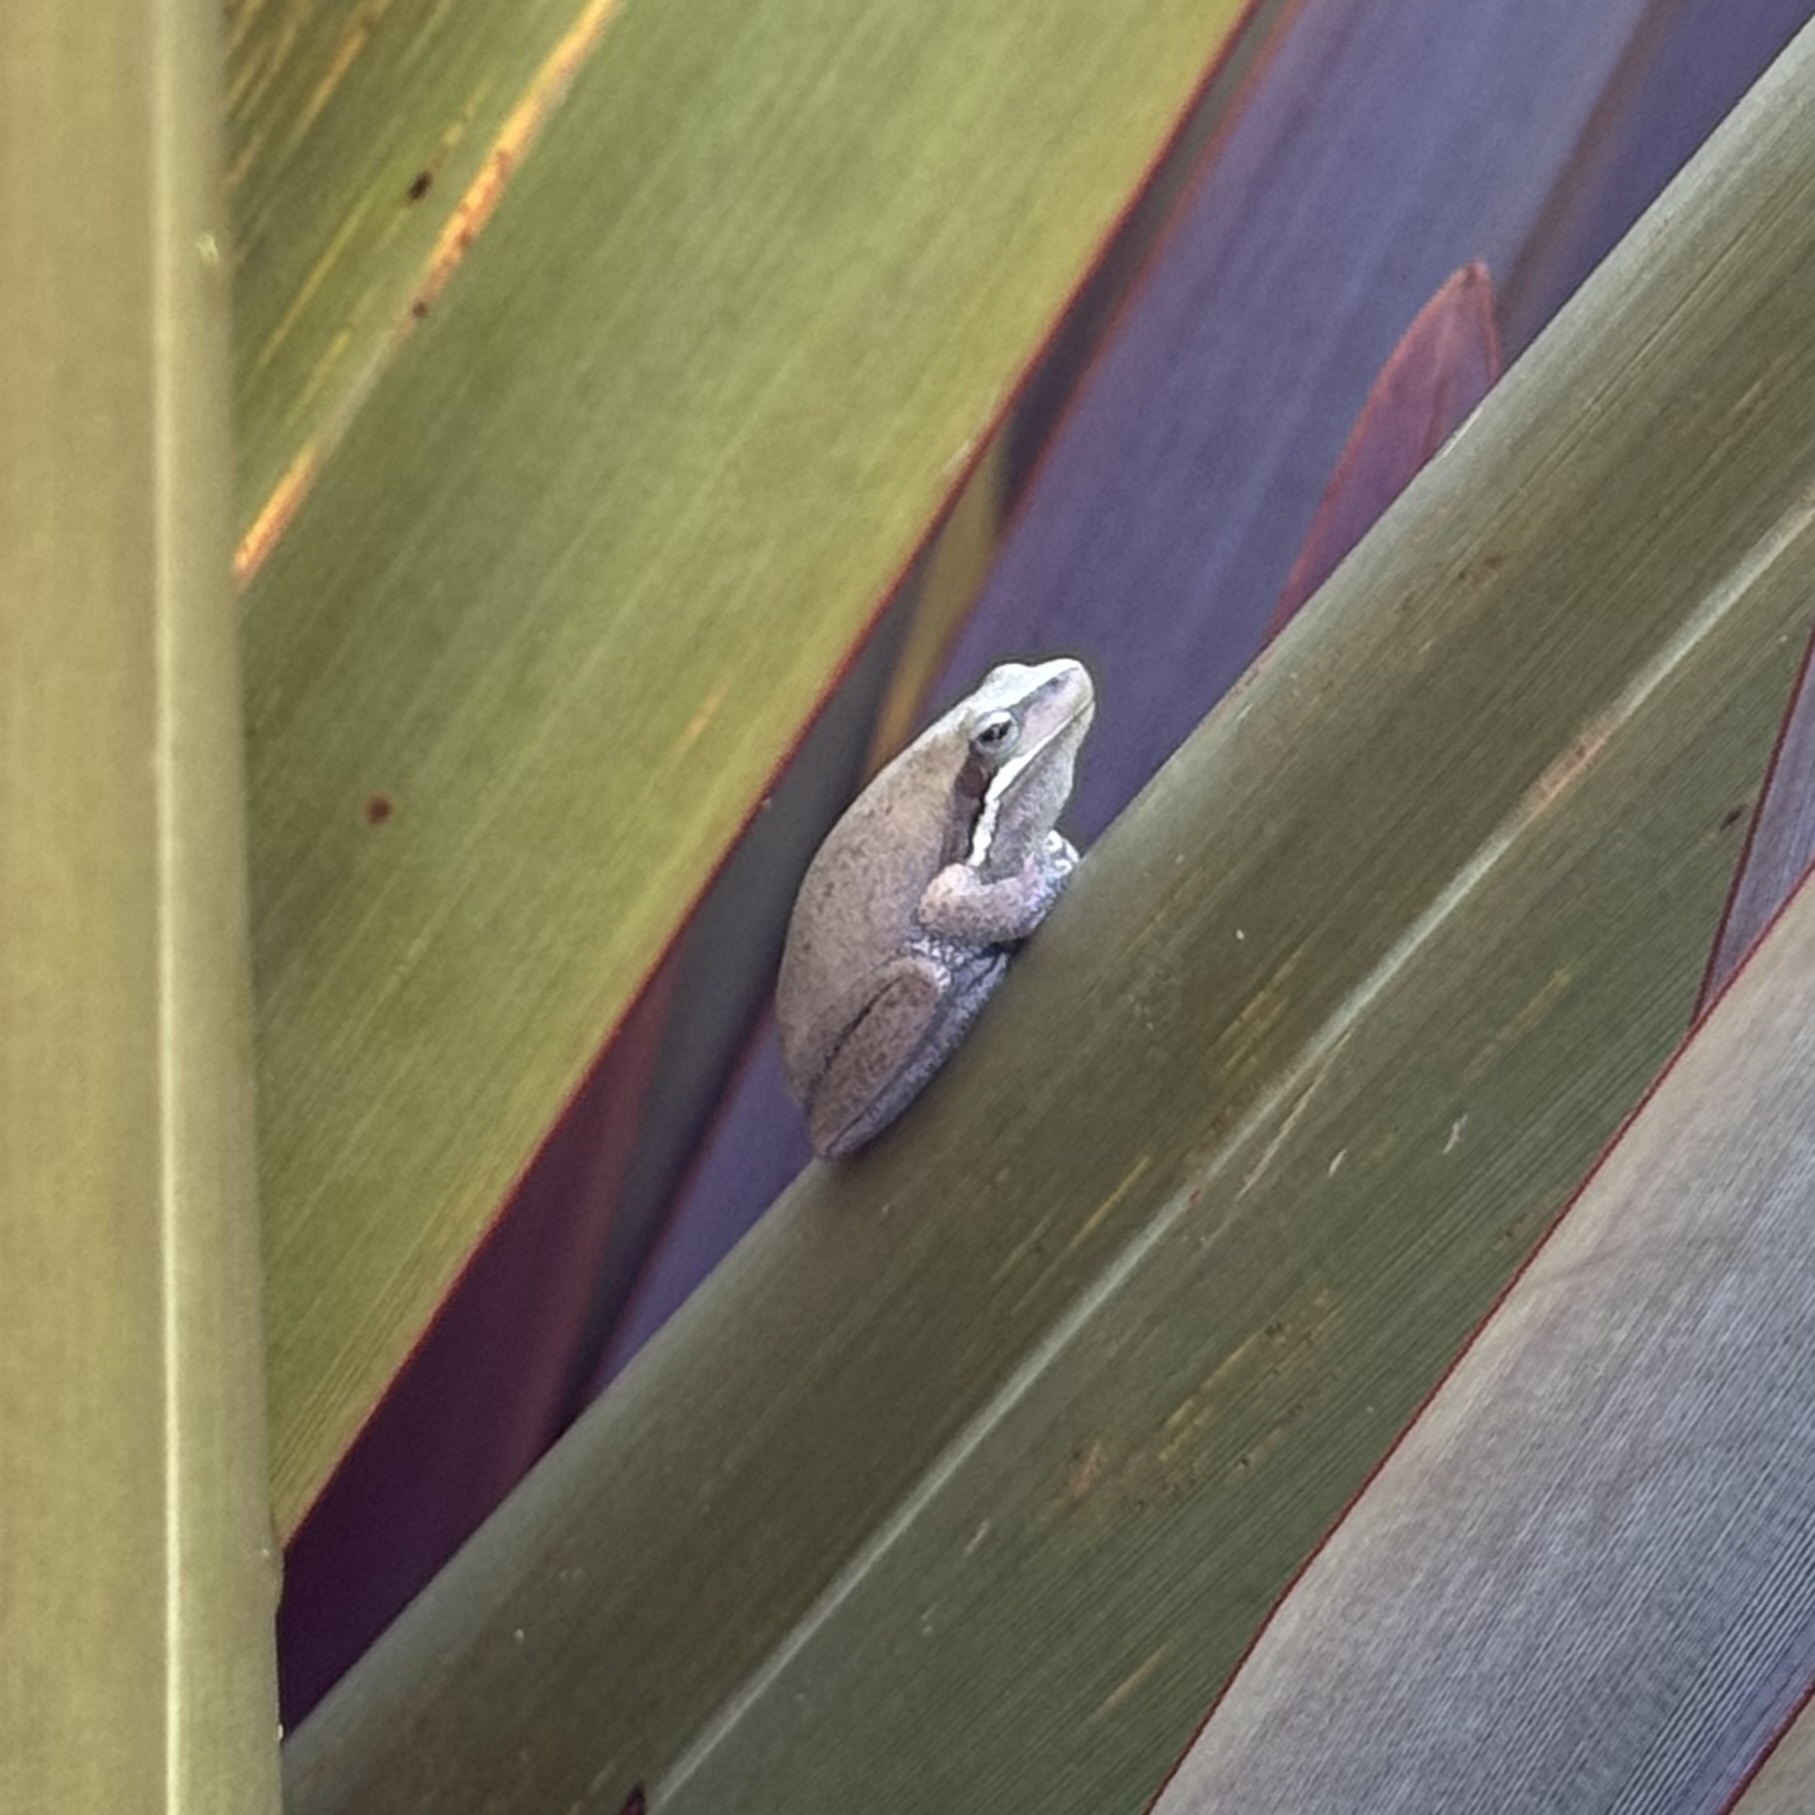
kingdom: Animalia
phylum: Chordata
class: Amphibia
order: Anura
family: Pelodryadidae
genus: Litoria
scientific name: Litoria fallax
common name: Eastern dwarf treefrog
